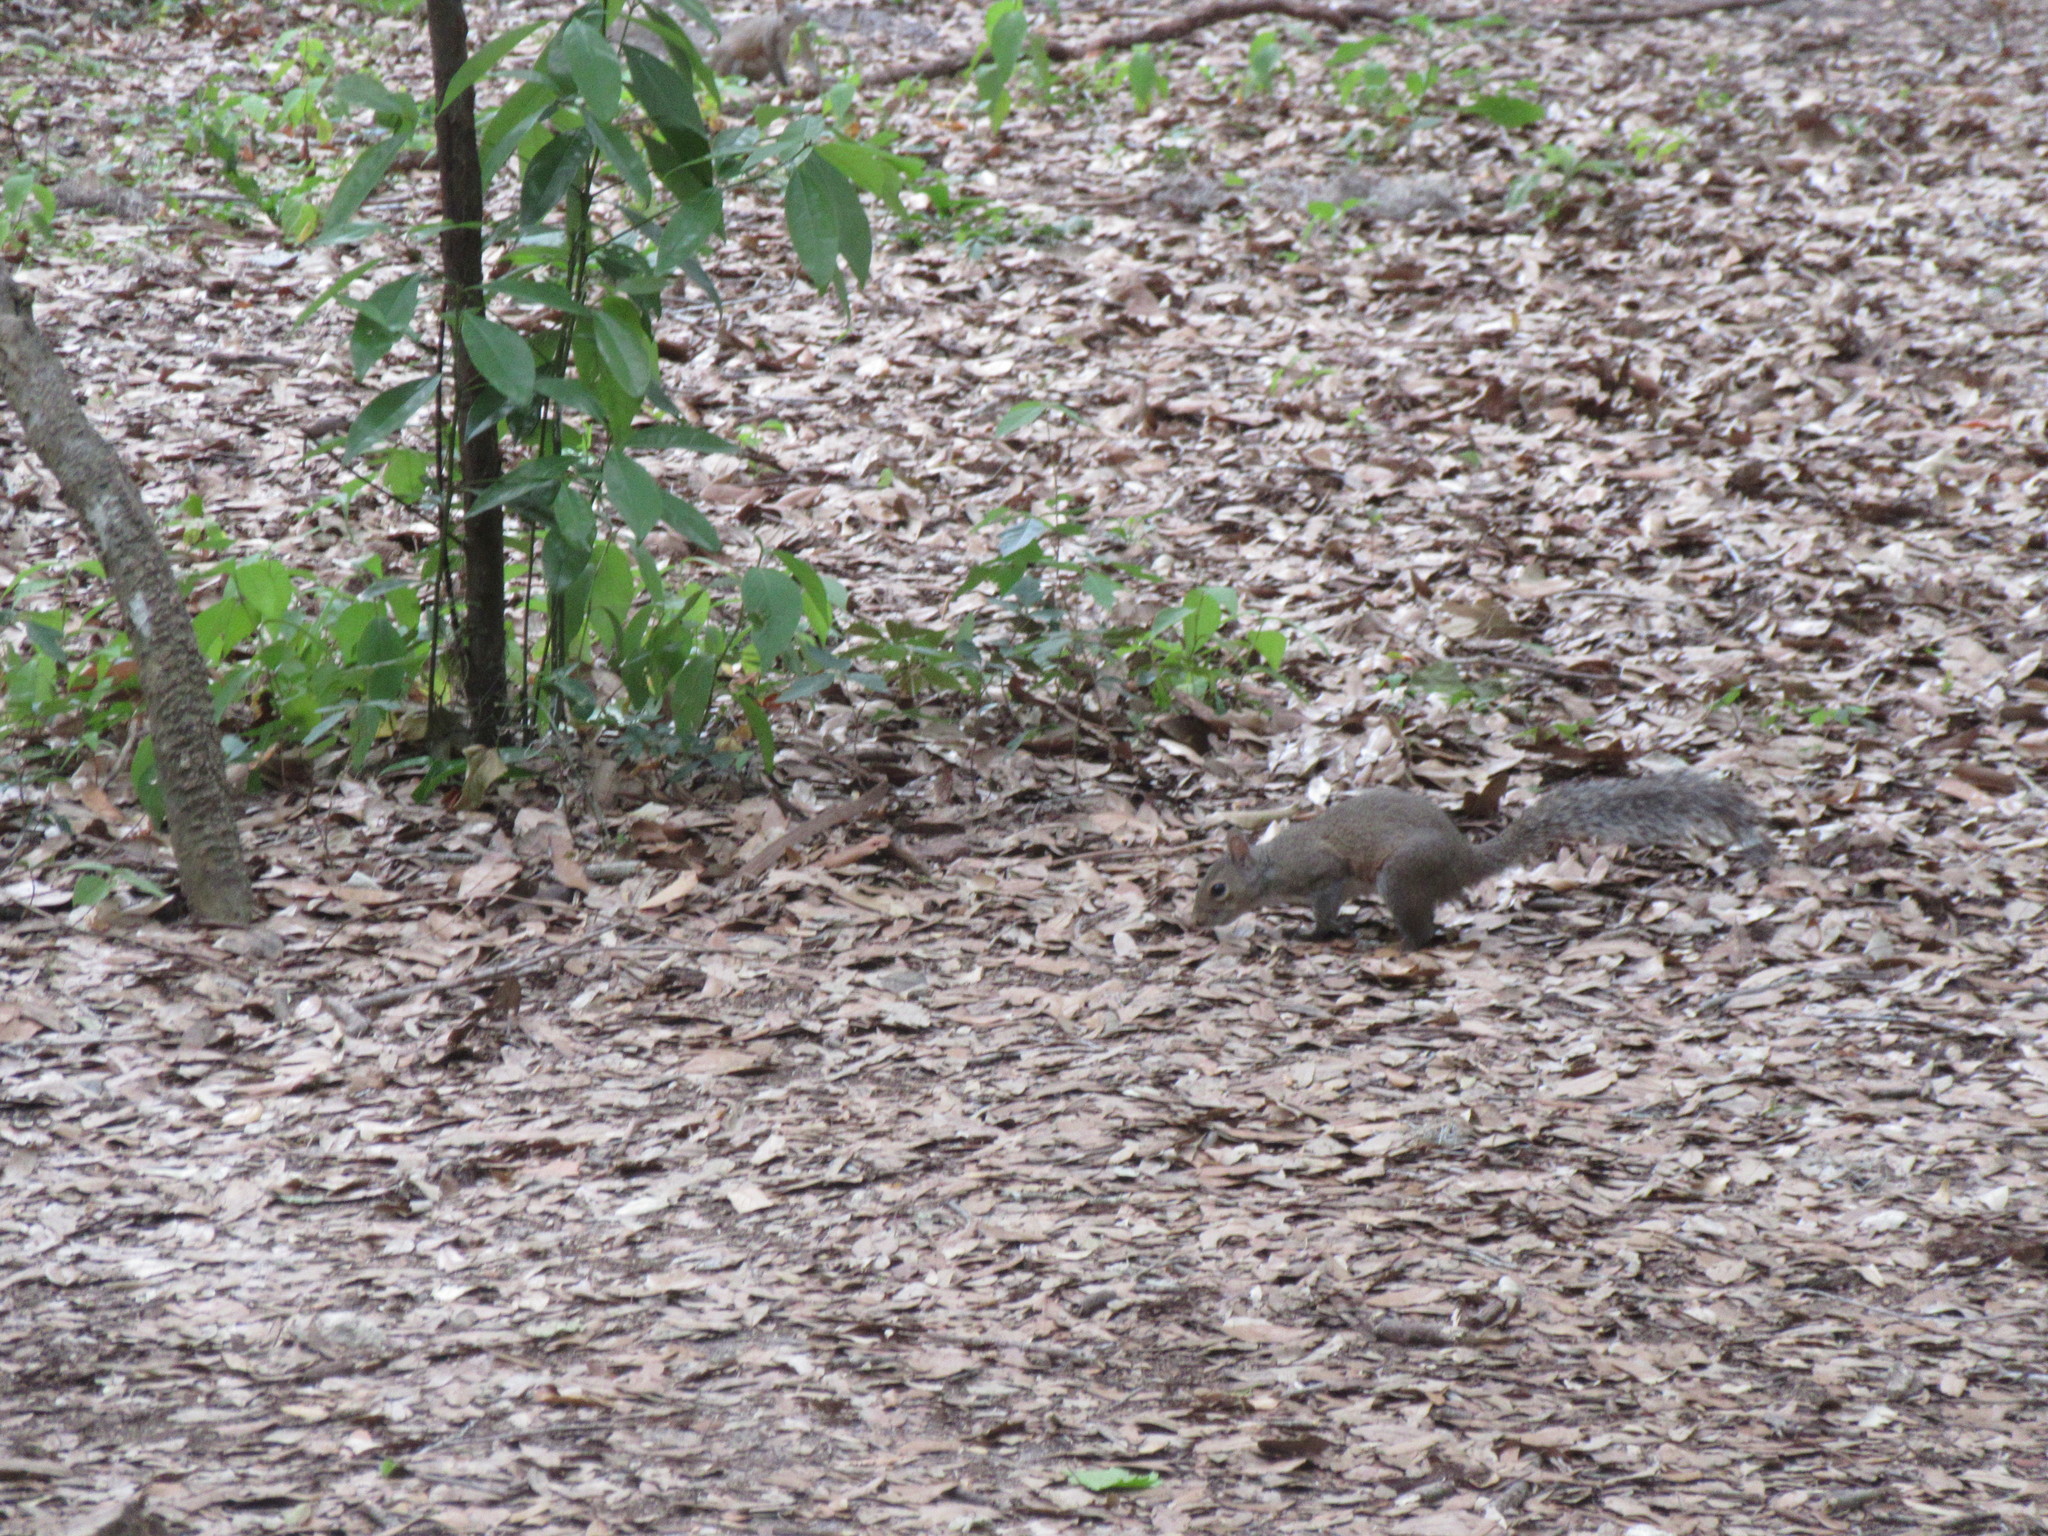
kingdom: Animalia
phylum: Chordata
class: Mammalia
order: Rodentia
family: Sciuridae
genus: Sciurus
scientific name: Sciurus carolinensis
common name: Eastern gray squirrel
